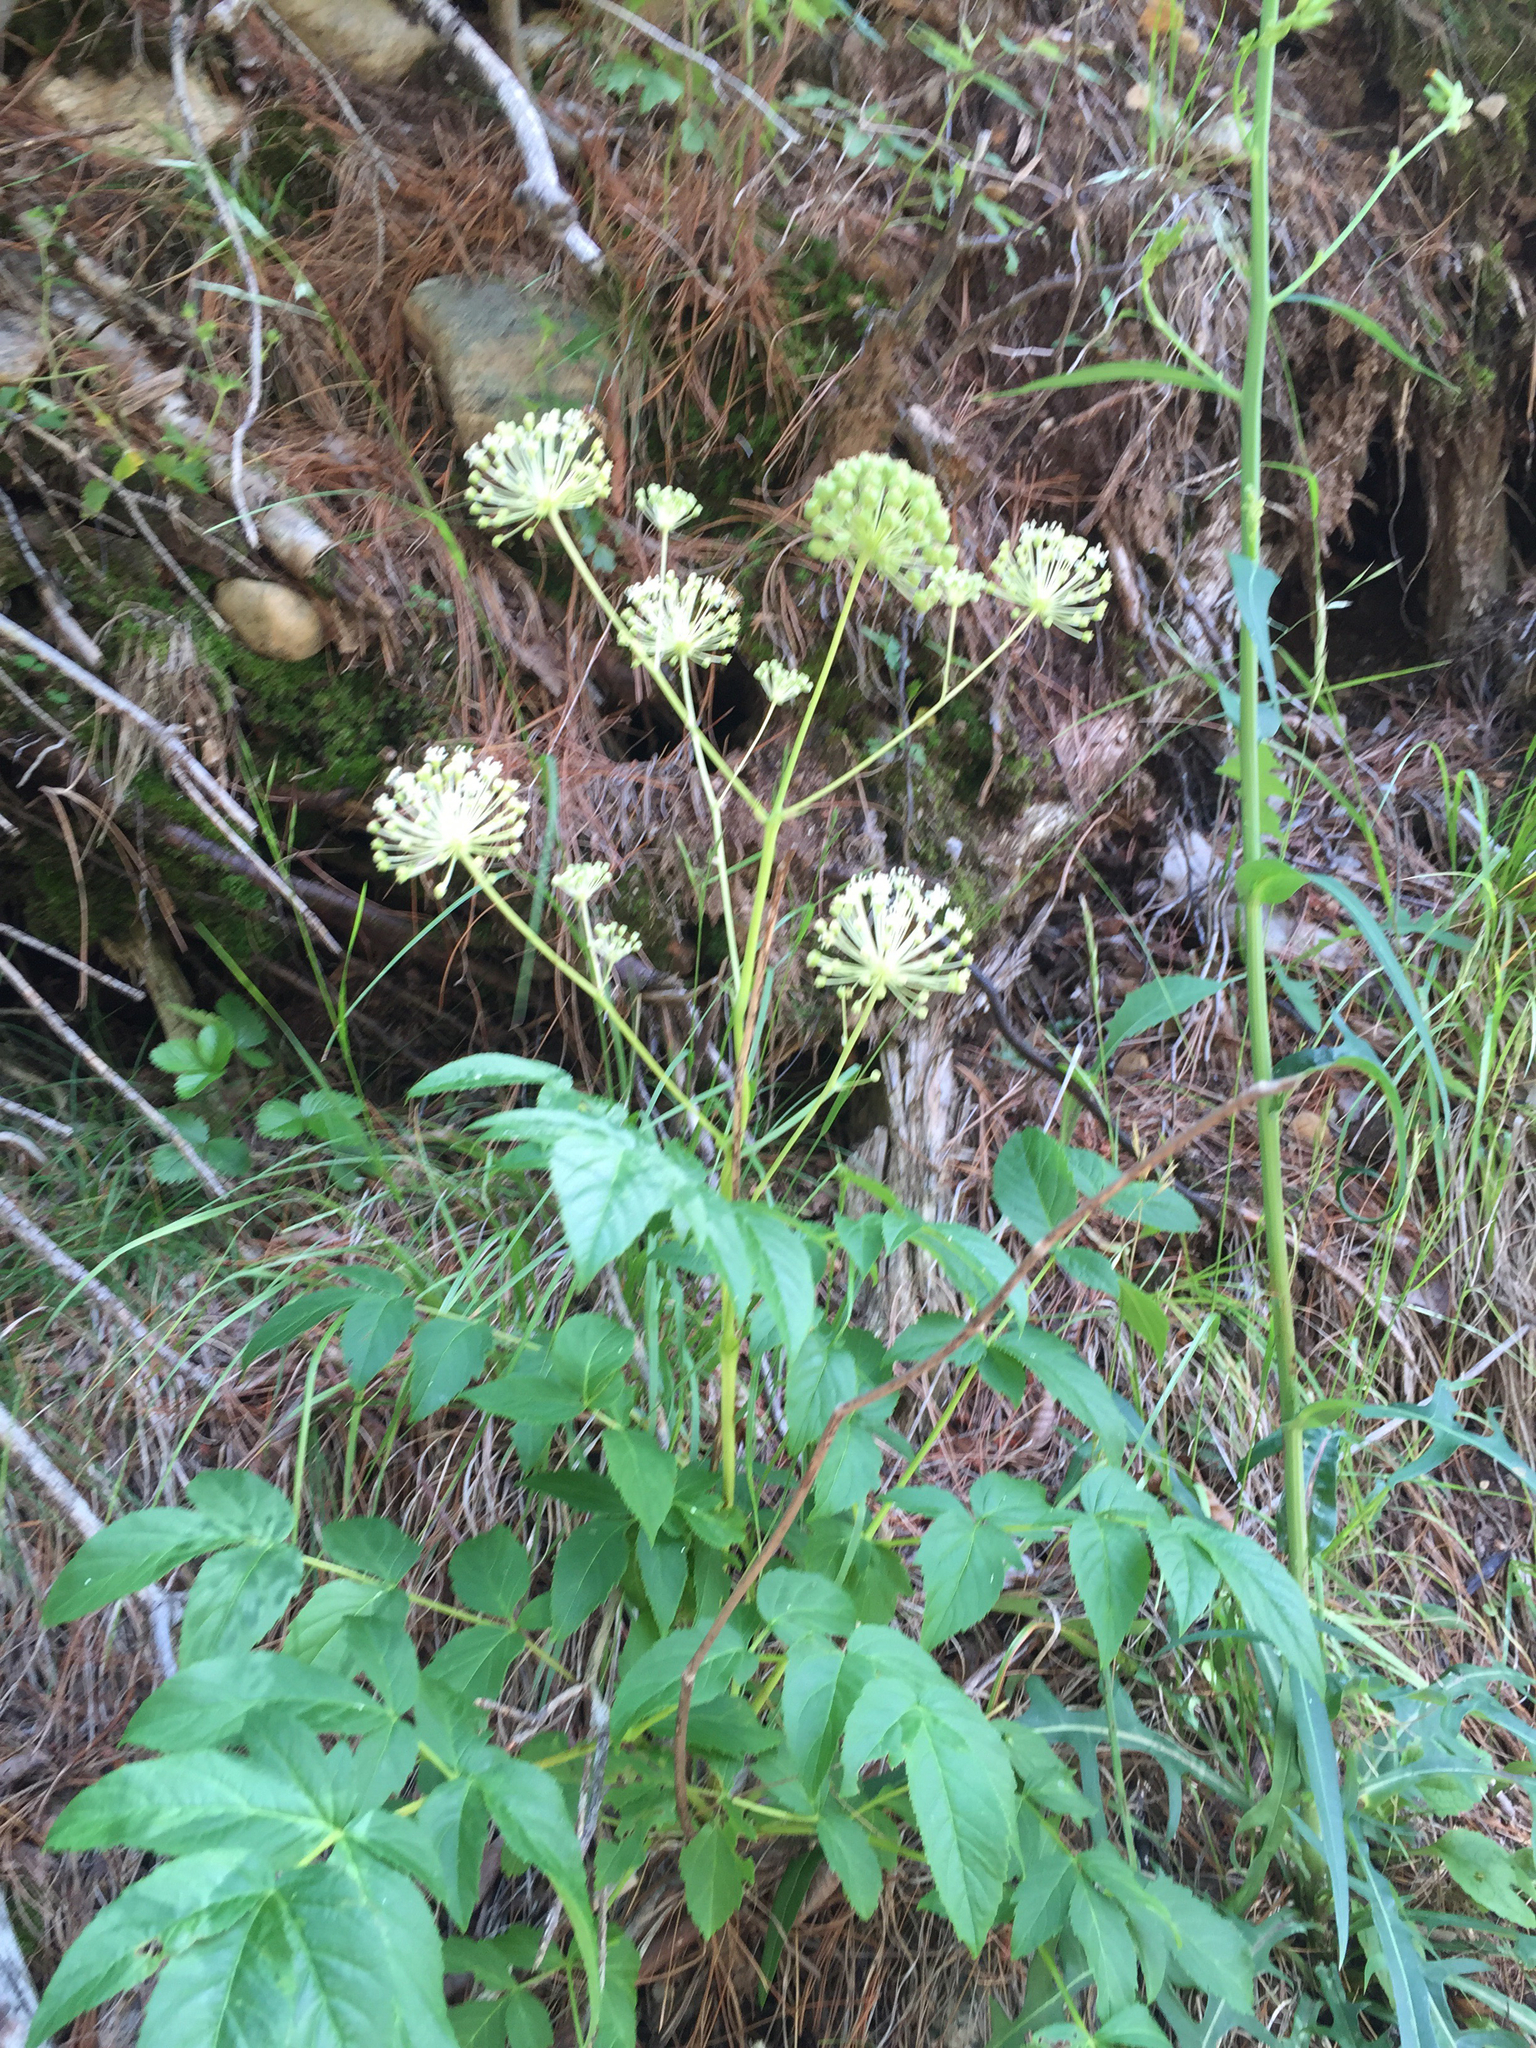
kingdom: Plantae
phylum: Tracheophyta
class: Magnoliopsida
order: Apiales
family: Araliaceae
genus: Aralia
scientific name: Aralia hispida
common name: Bristly sarsaparilla
